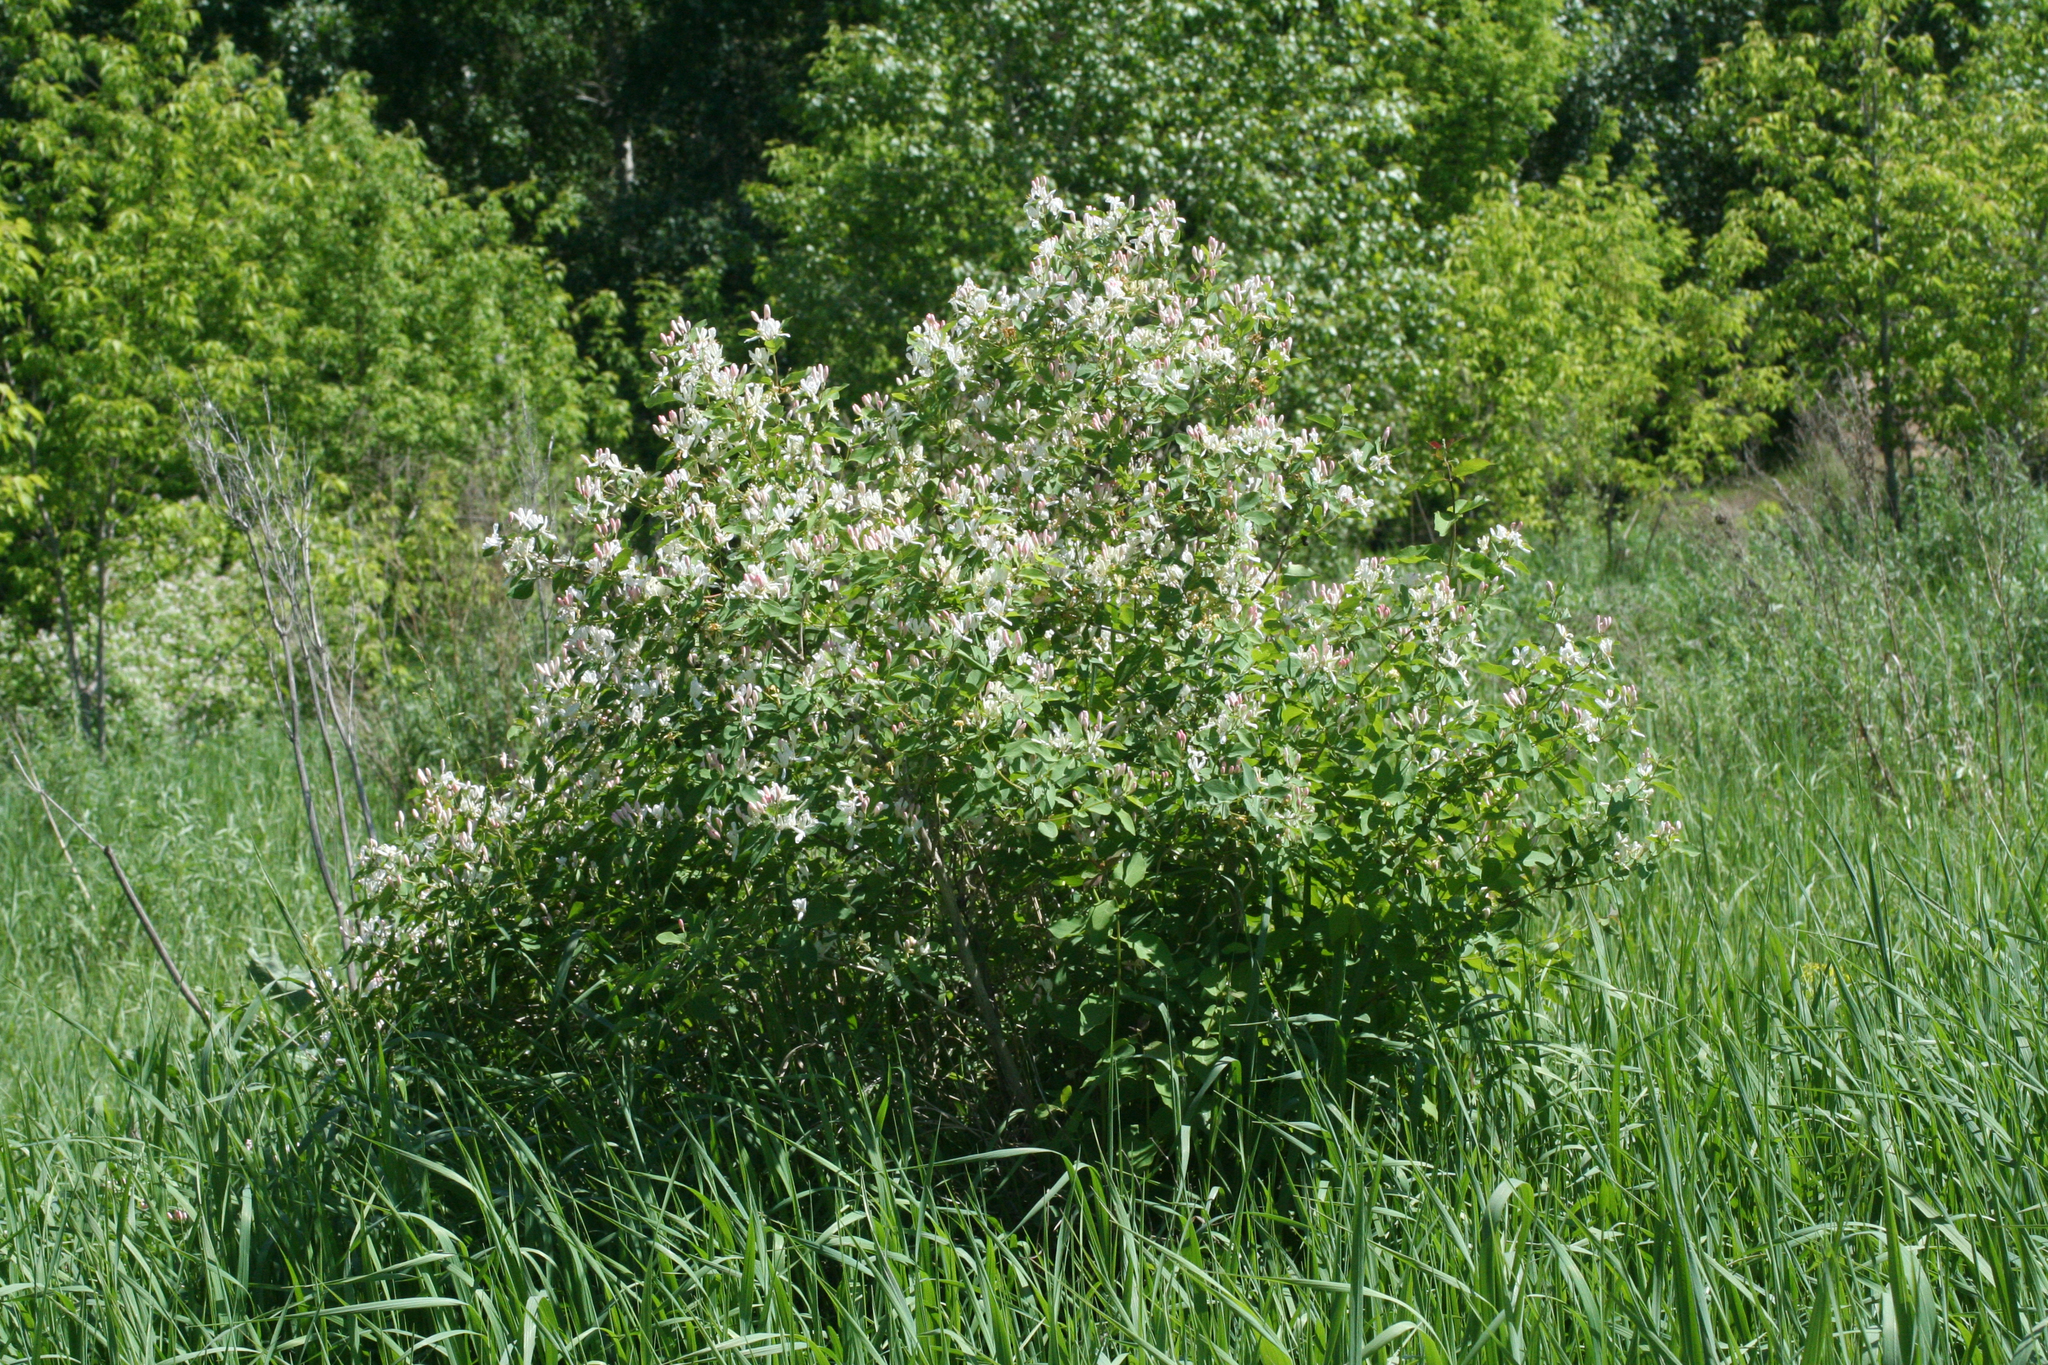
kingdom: Plantae
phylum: Tracheophyta
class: Magnoliopsida
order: Dipsacales
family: Caprifoliaceae
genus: Lonicera
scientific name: Lonicera tatarica
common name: Tatarian honeysuckle
